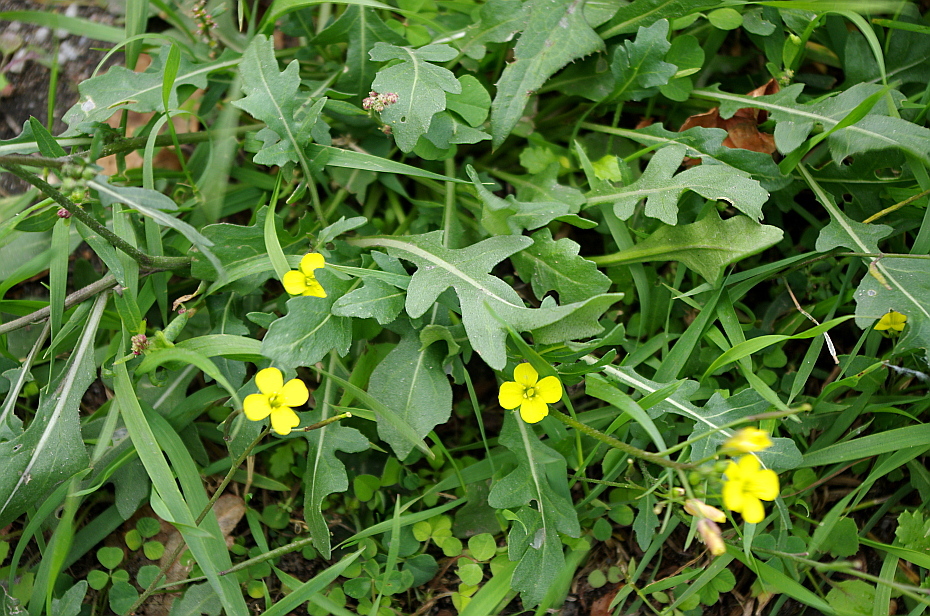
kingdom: Plantae
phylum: Tracheophyta
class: Magnoliopsida
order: Brassicales
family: Brassicaceae
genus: Diplotaxis
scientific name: Diplotaxis muralis
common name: Annual wall-rocket
